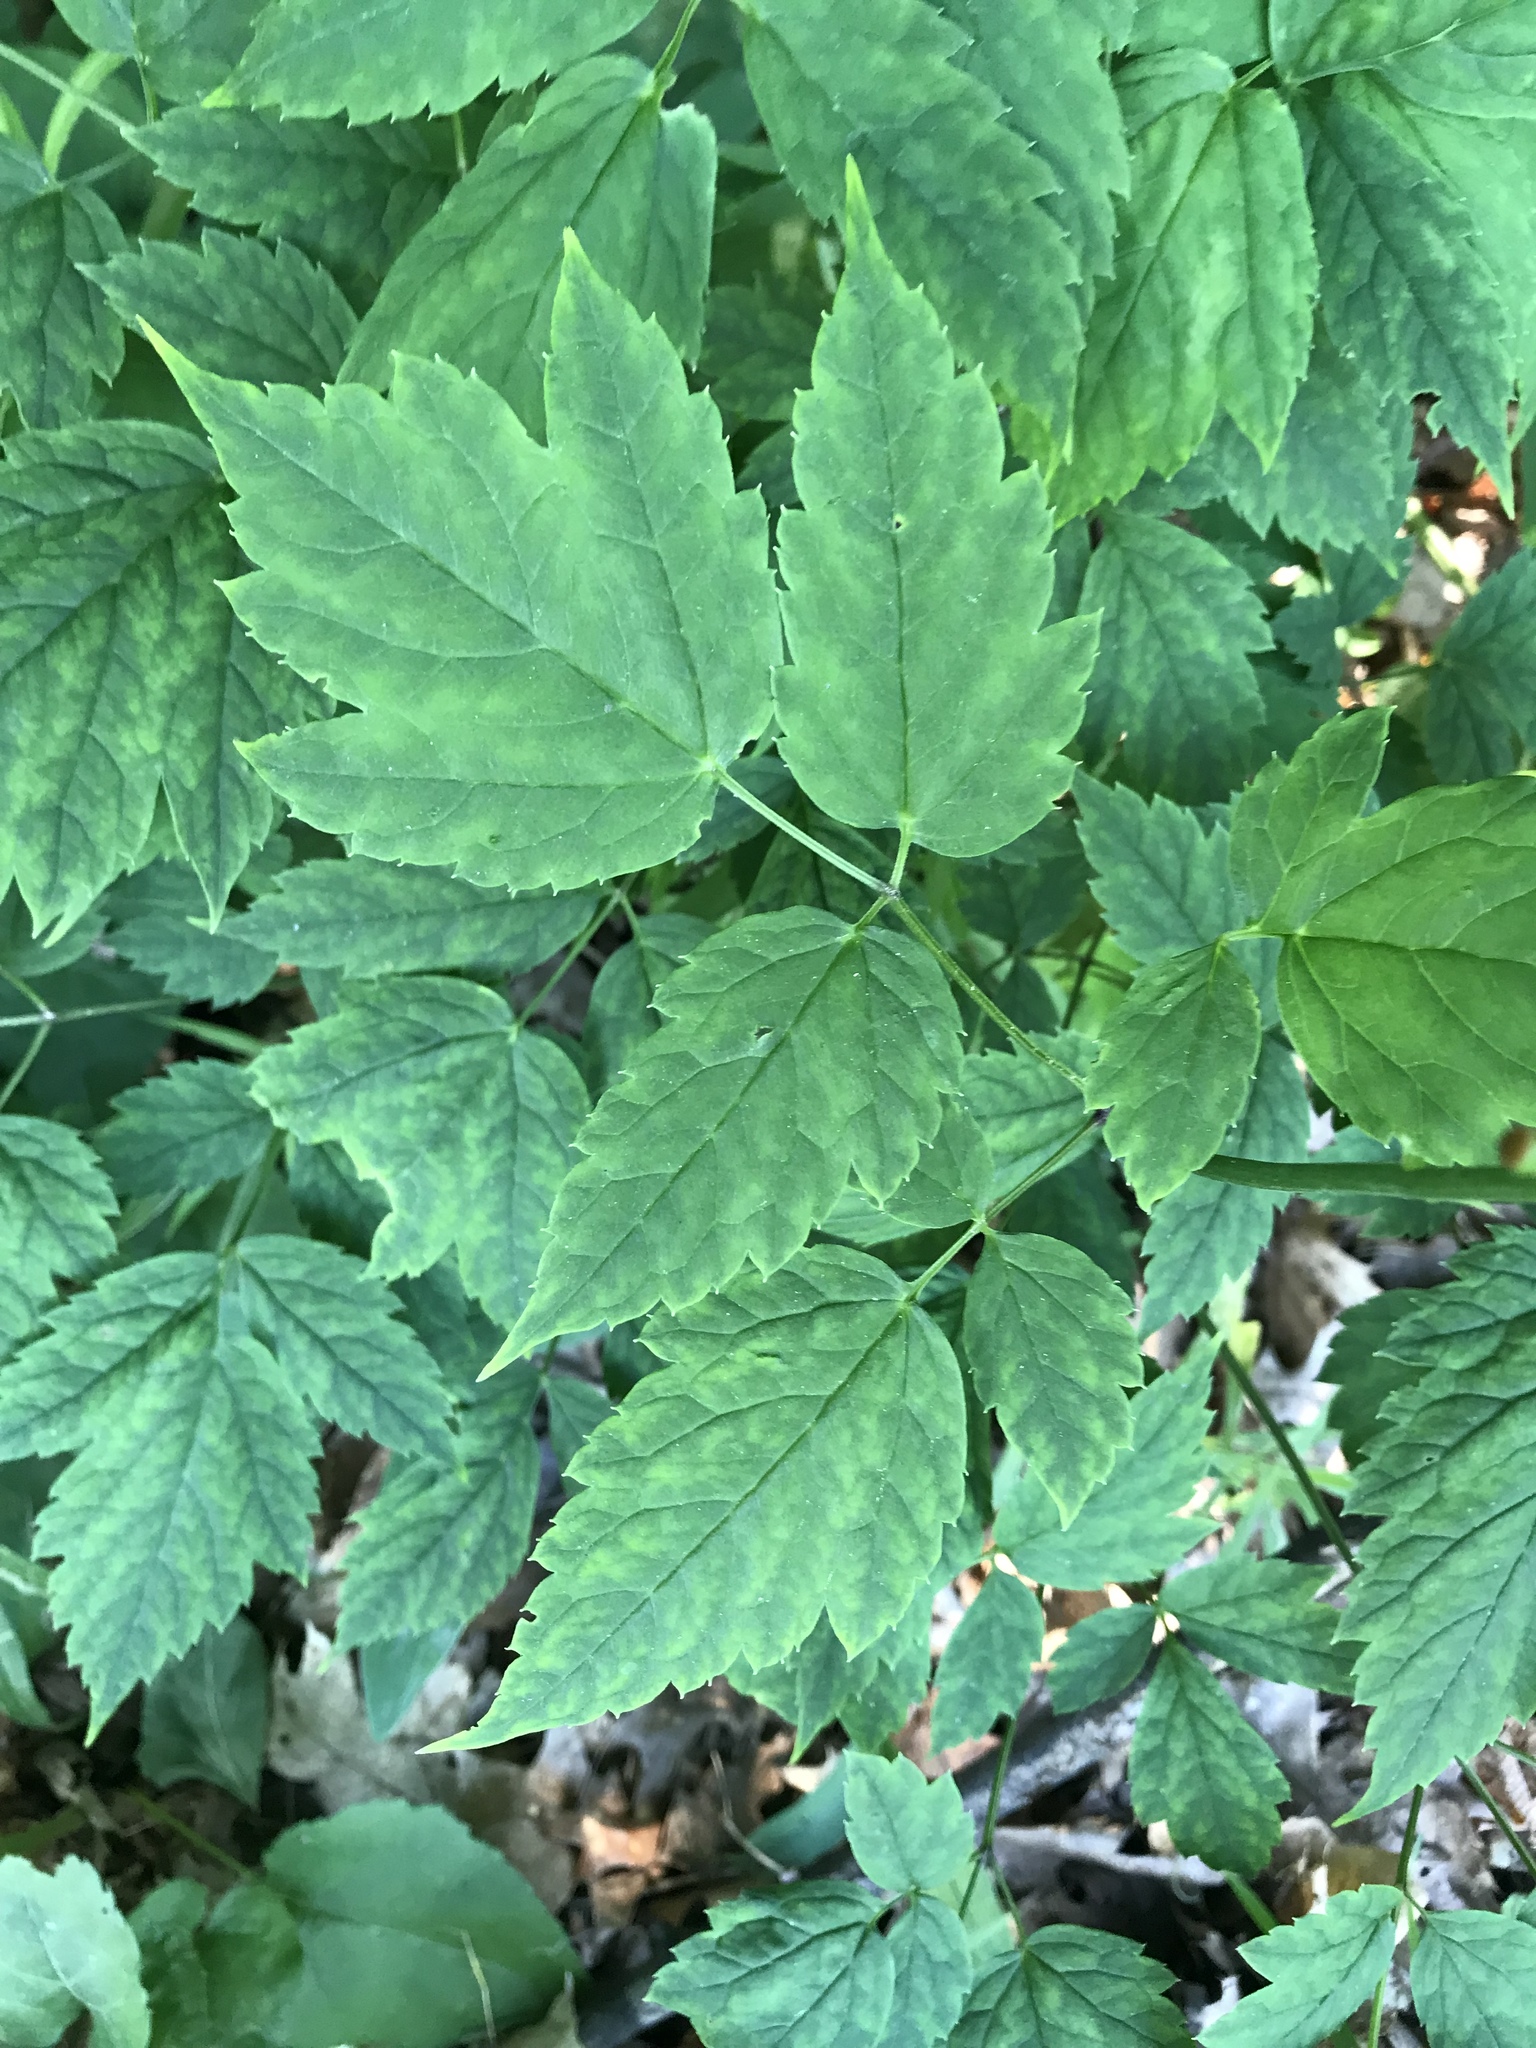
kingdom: Plantae
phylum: Tracheophyta
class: Magnoliopsida
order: Ranunculales
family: Ranunculaceae
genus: Actaea
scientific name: Actaea pachypoda
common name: Doll's-eyes
